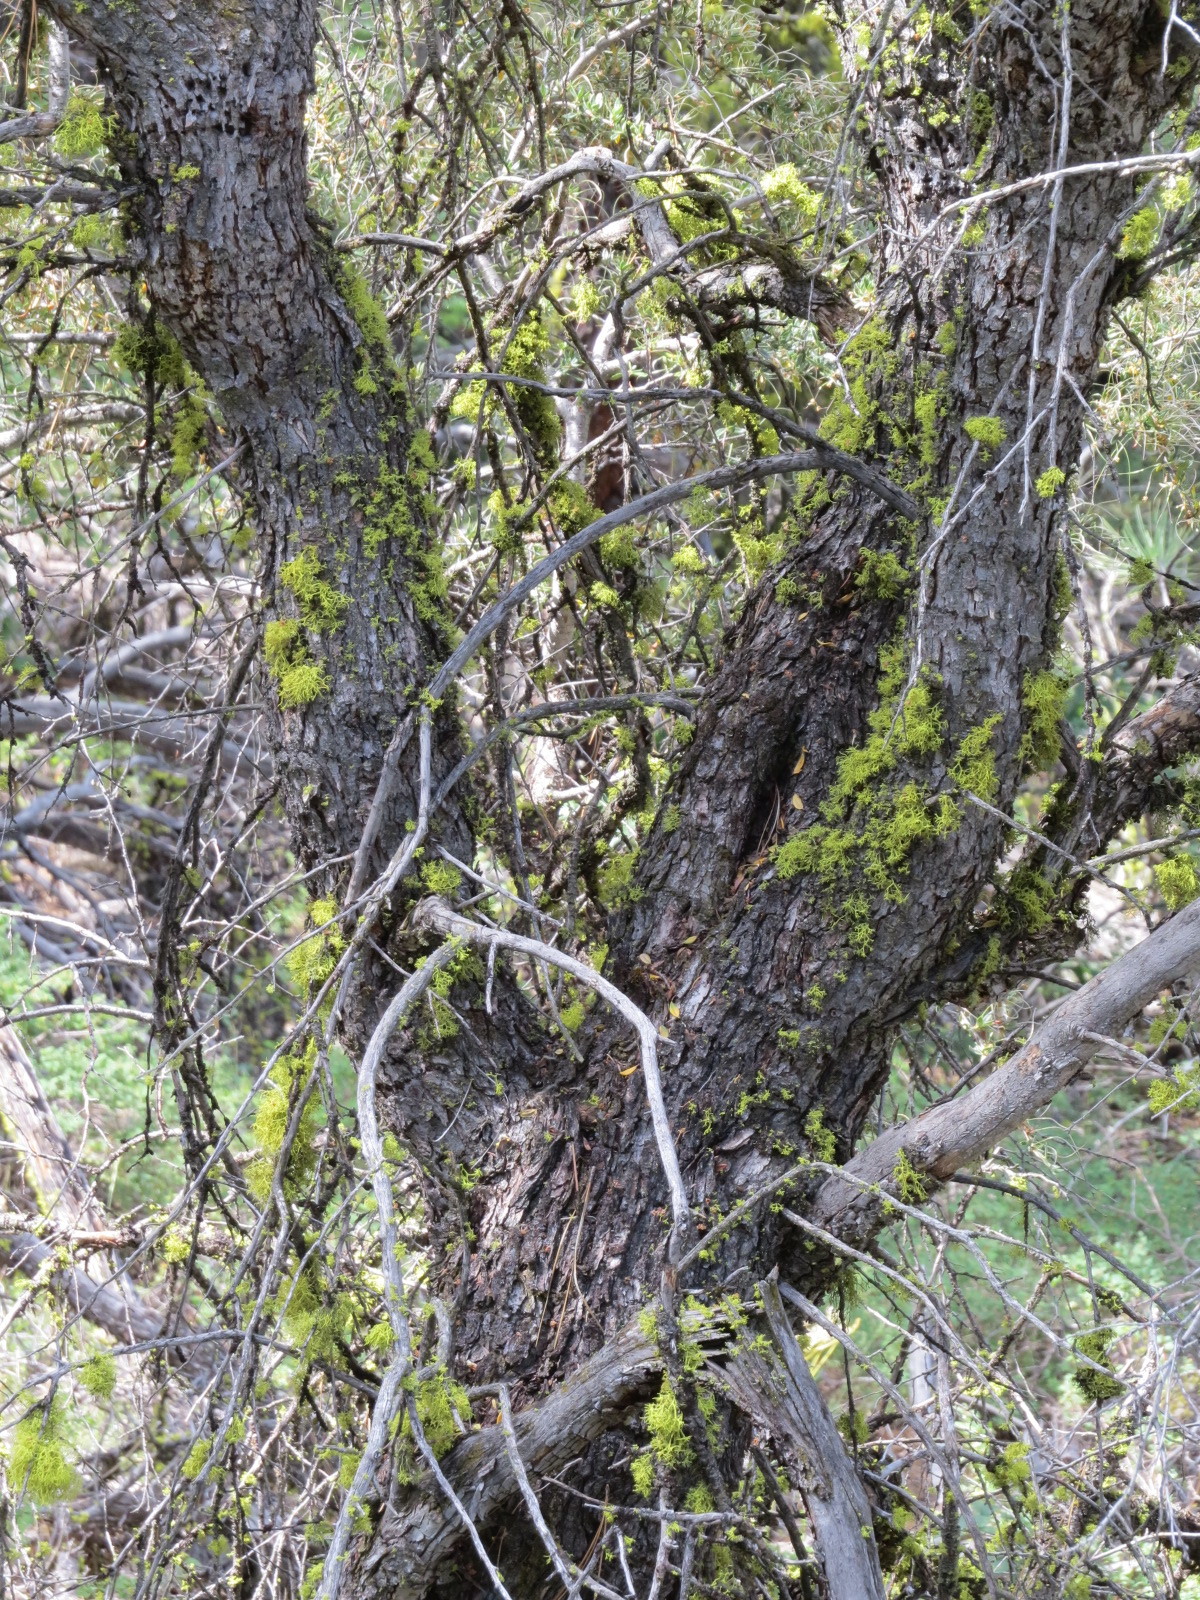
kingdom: Plantae
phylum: Tracheophyta
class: Magnoliopsida
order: Rosales
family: Rosaceae
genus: Cercocarpus
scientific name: Cercocarpus ledifolius
